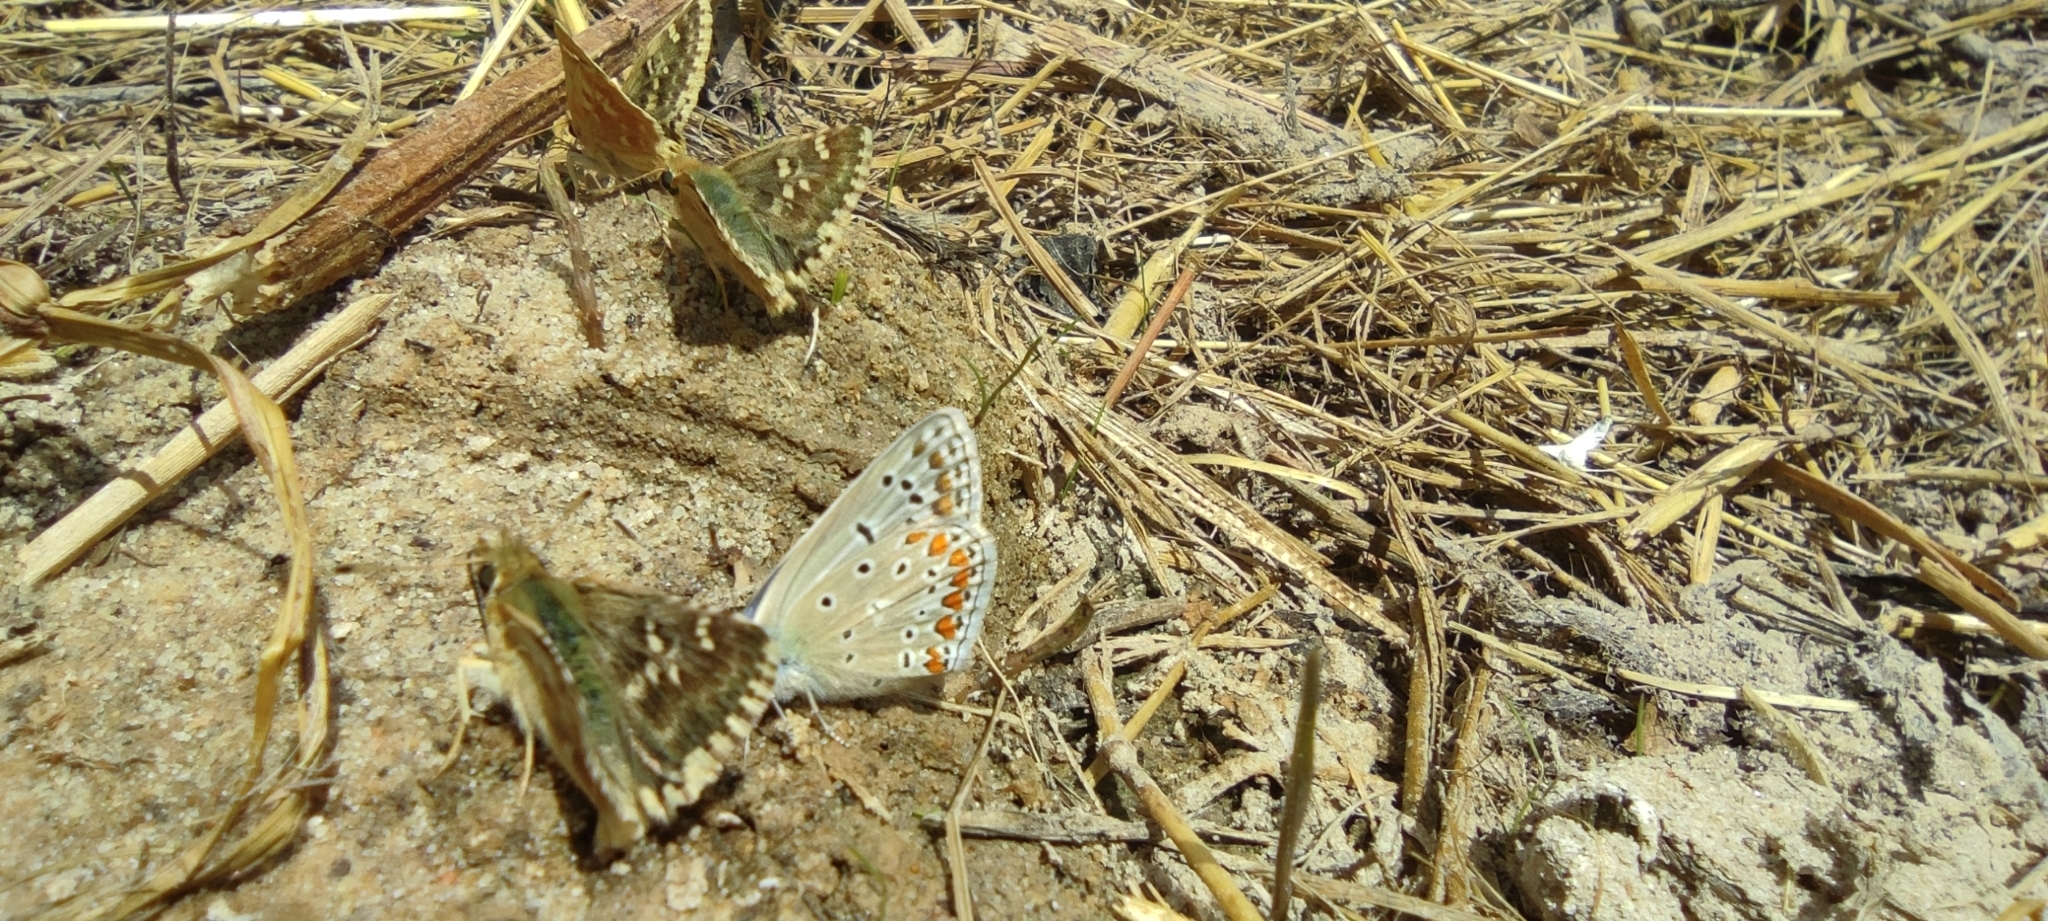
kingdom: Animalia
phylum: Arthropoda
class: Insecta
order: Lepidoptera
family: Hesperiidae
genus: Syrichtus
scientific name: Syrichtus Muschampia proto
